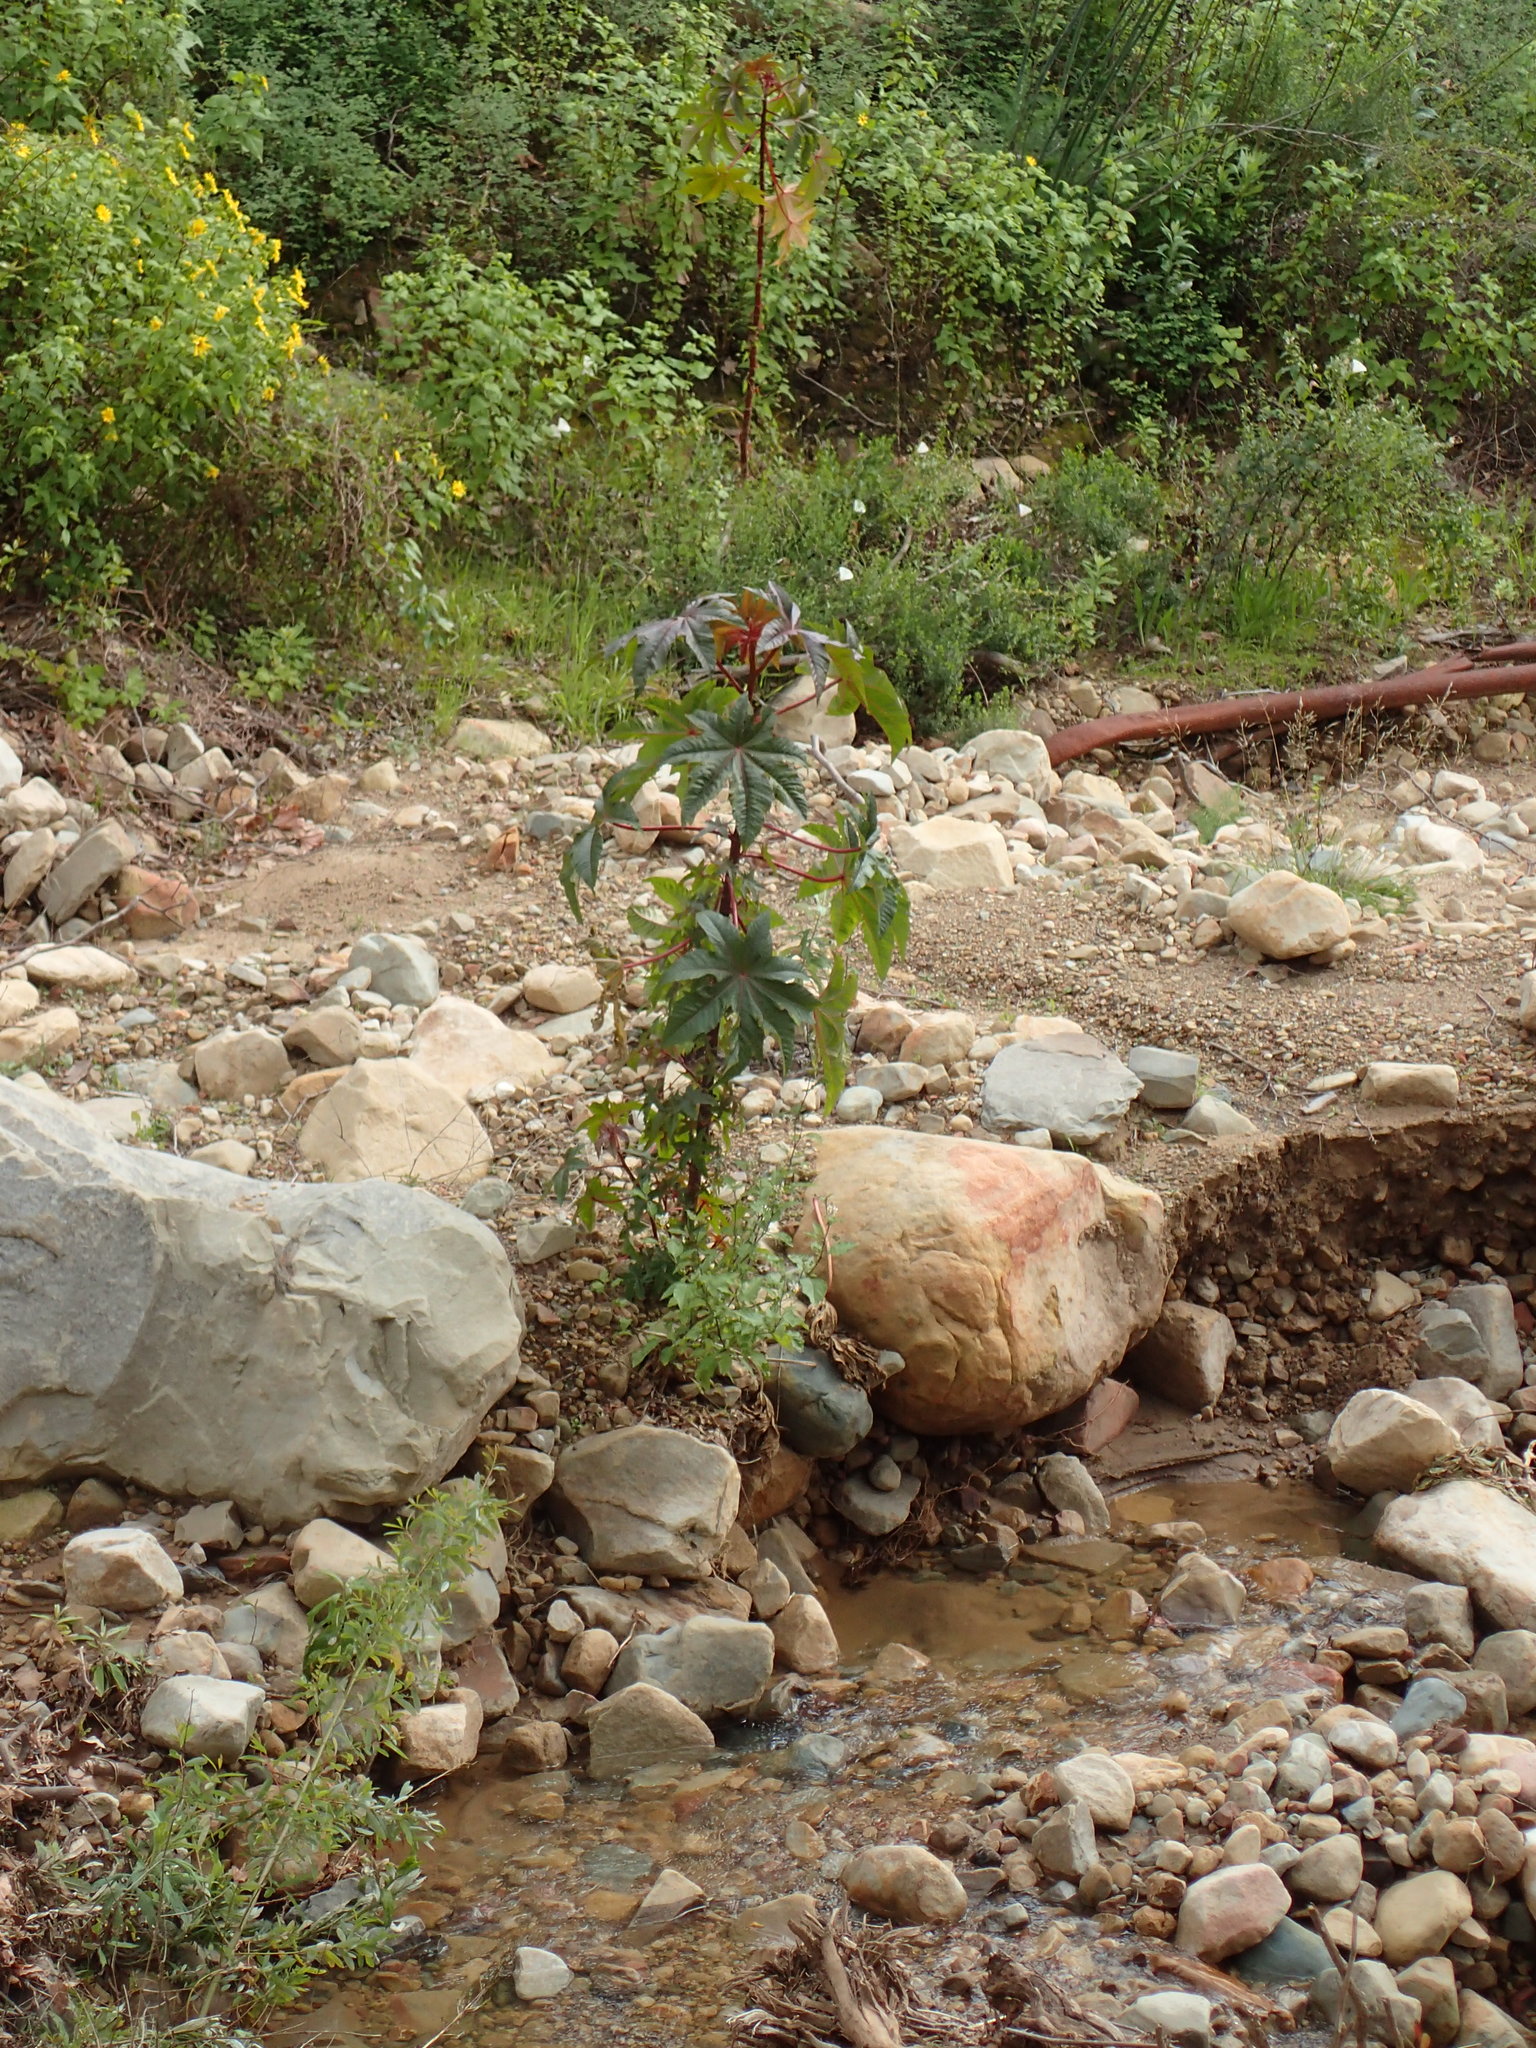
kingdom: Plantae
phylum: Tracheophyta
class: Magnoliopsida
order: Malpighiales
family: Euphorbiaceae
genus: Ricinus
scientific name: Ricinus communis
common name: Castor-oil-plant
